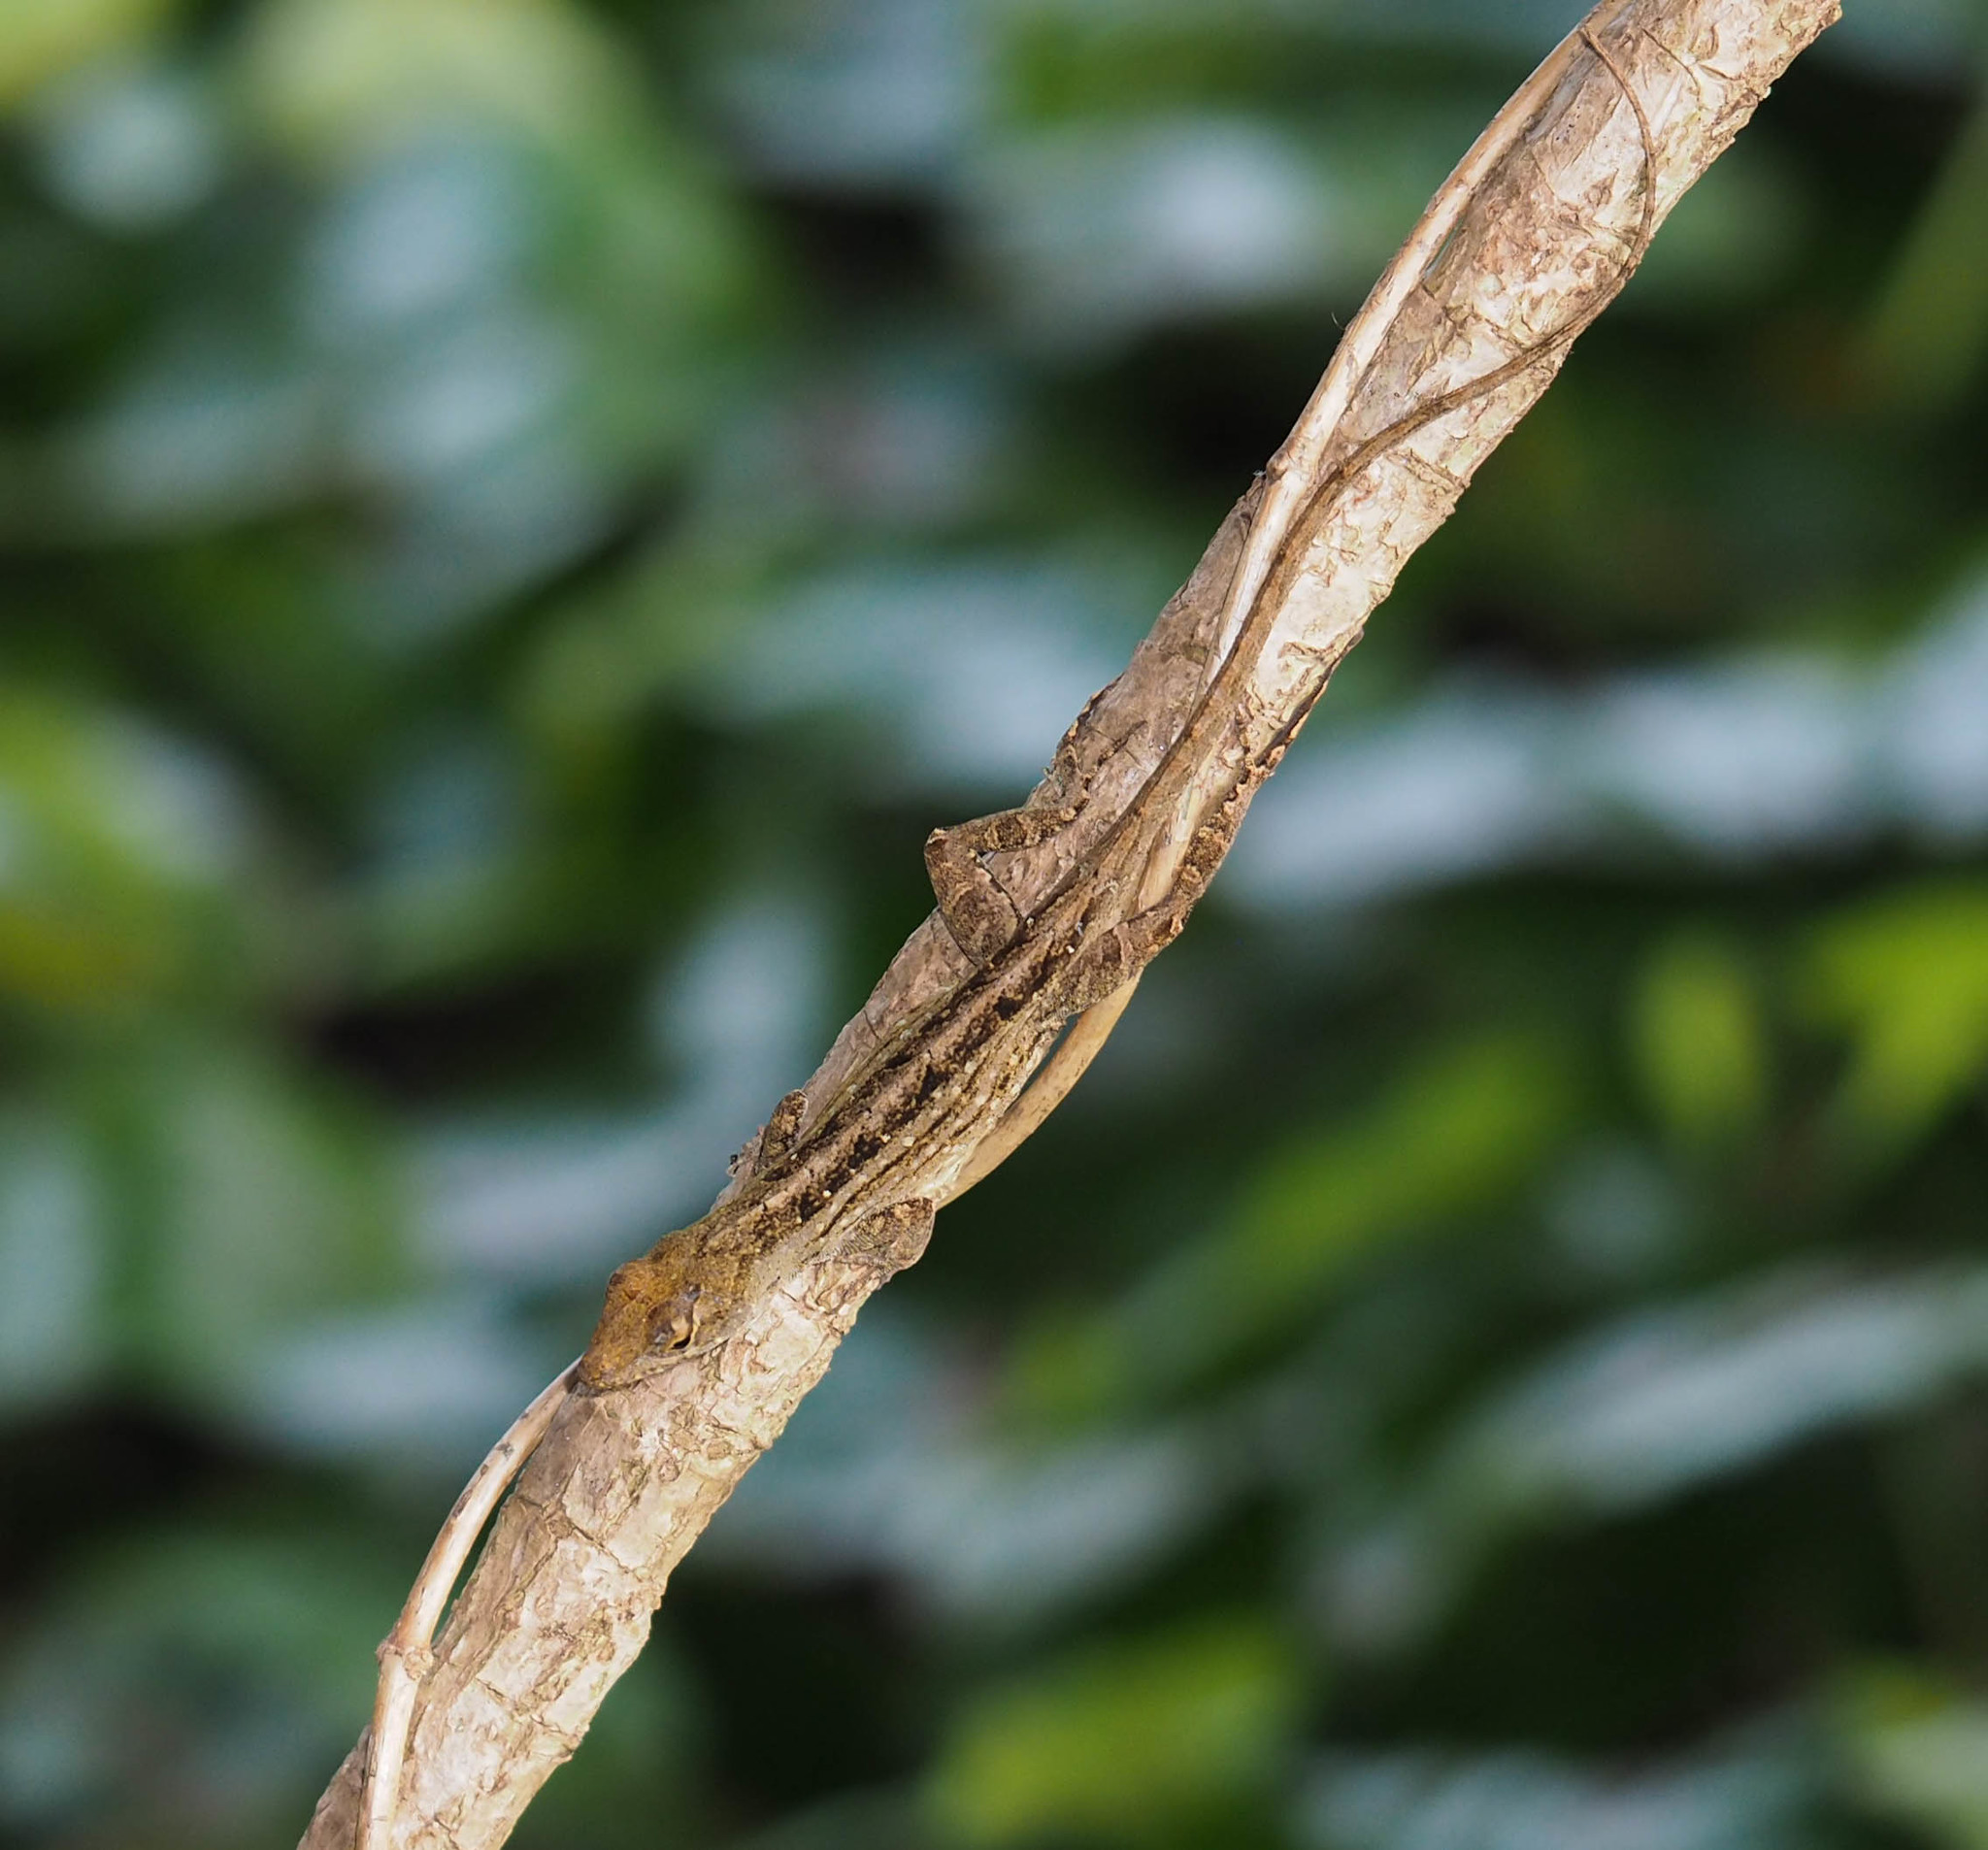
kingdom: Animalia
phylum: Chordata
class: Squamata
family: Dactyloidae
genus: Anolis
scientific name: Anolis sagrei
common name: Brown anole
